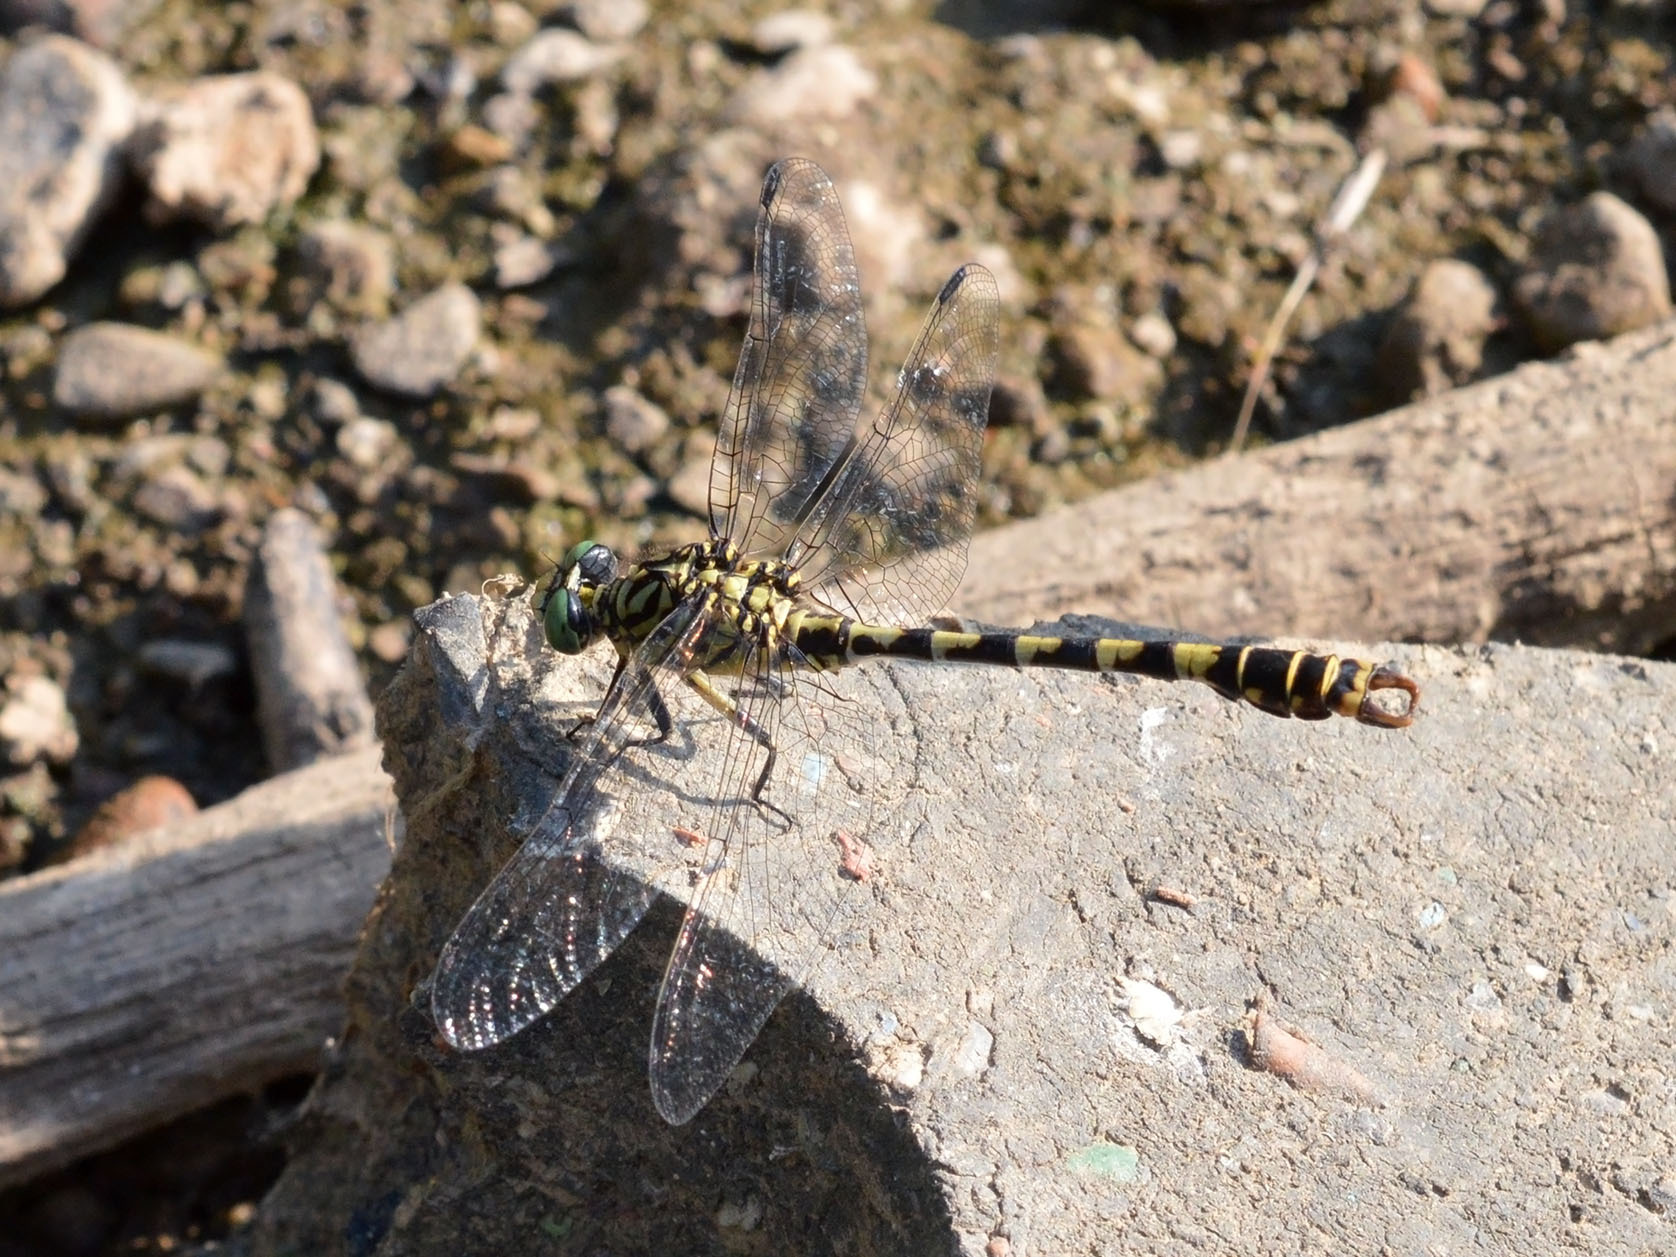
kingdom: Animalia
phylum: Arthropoda
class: Insecta
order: Odonata
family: Gomphidae
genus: Onychogomphus
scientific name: Onychogomphus forcipatus
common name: Small pincertail
